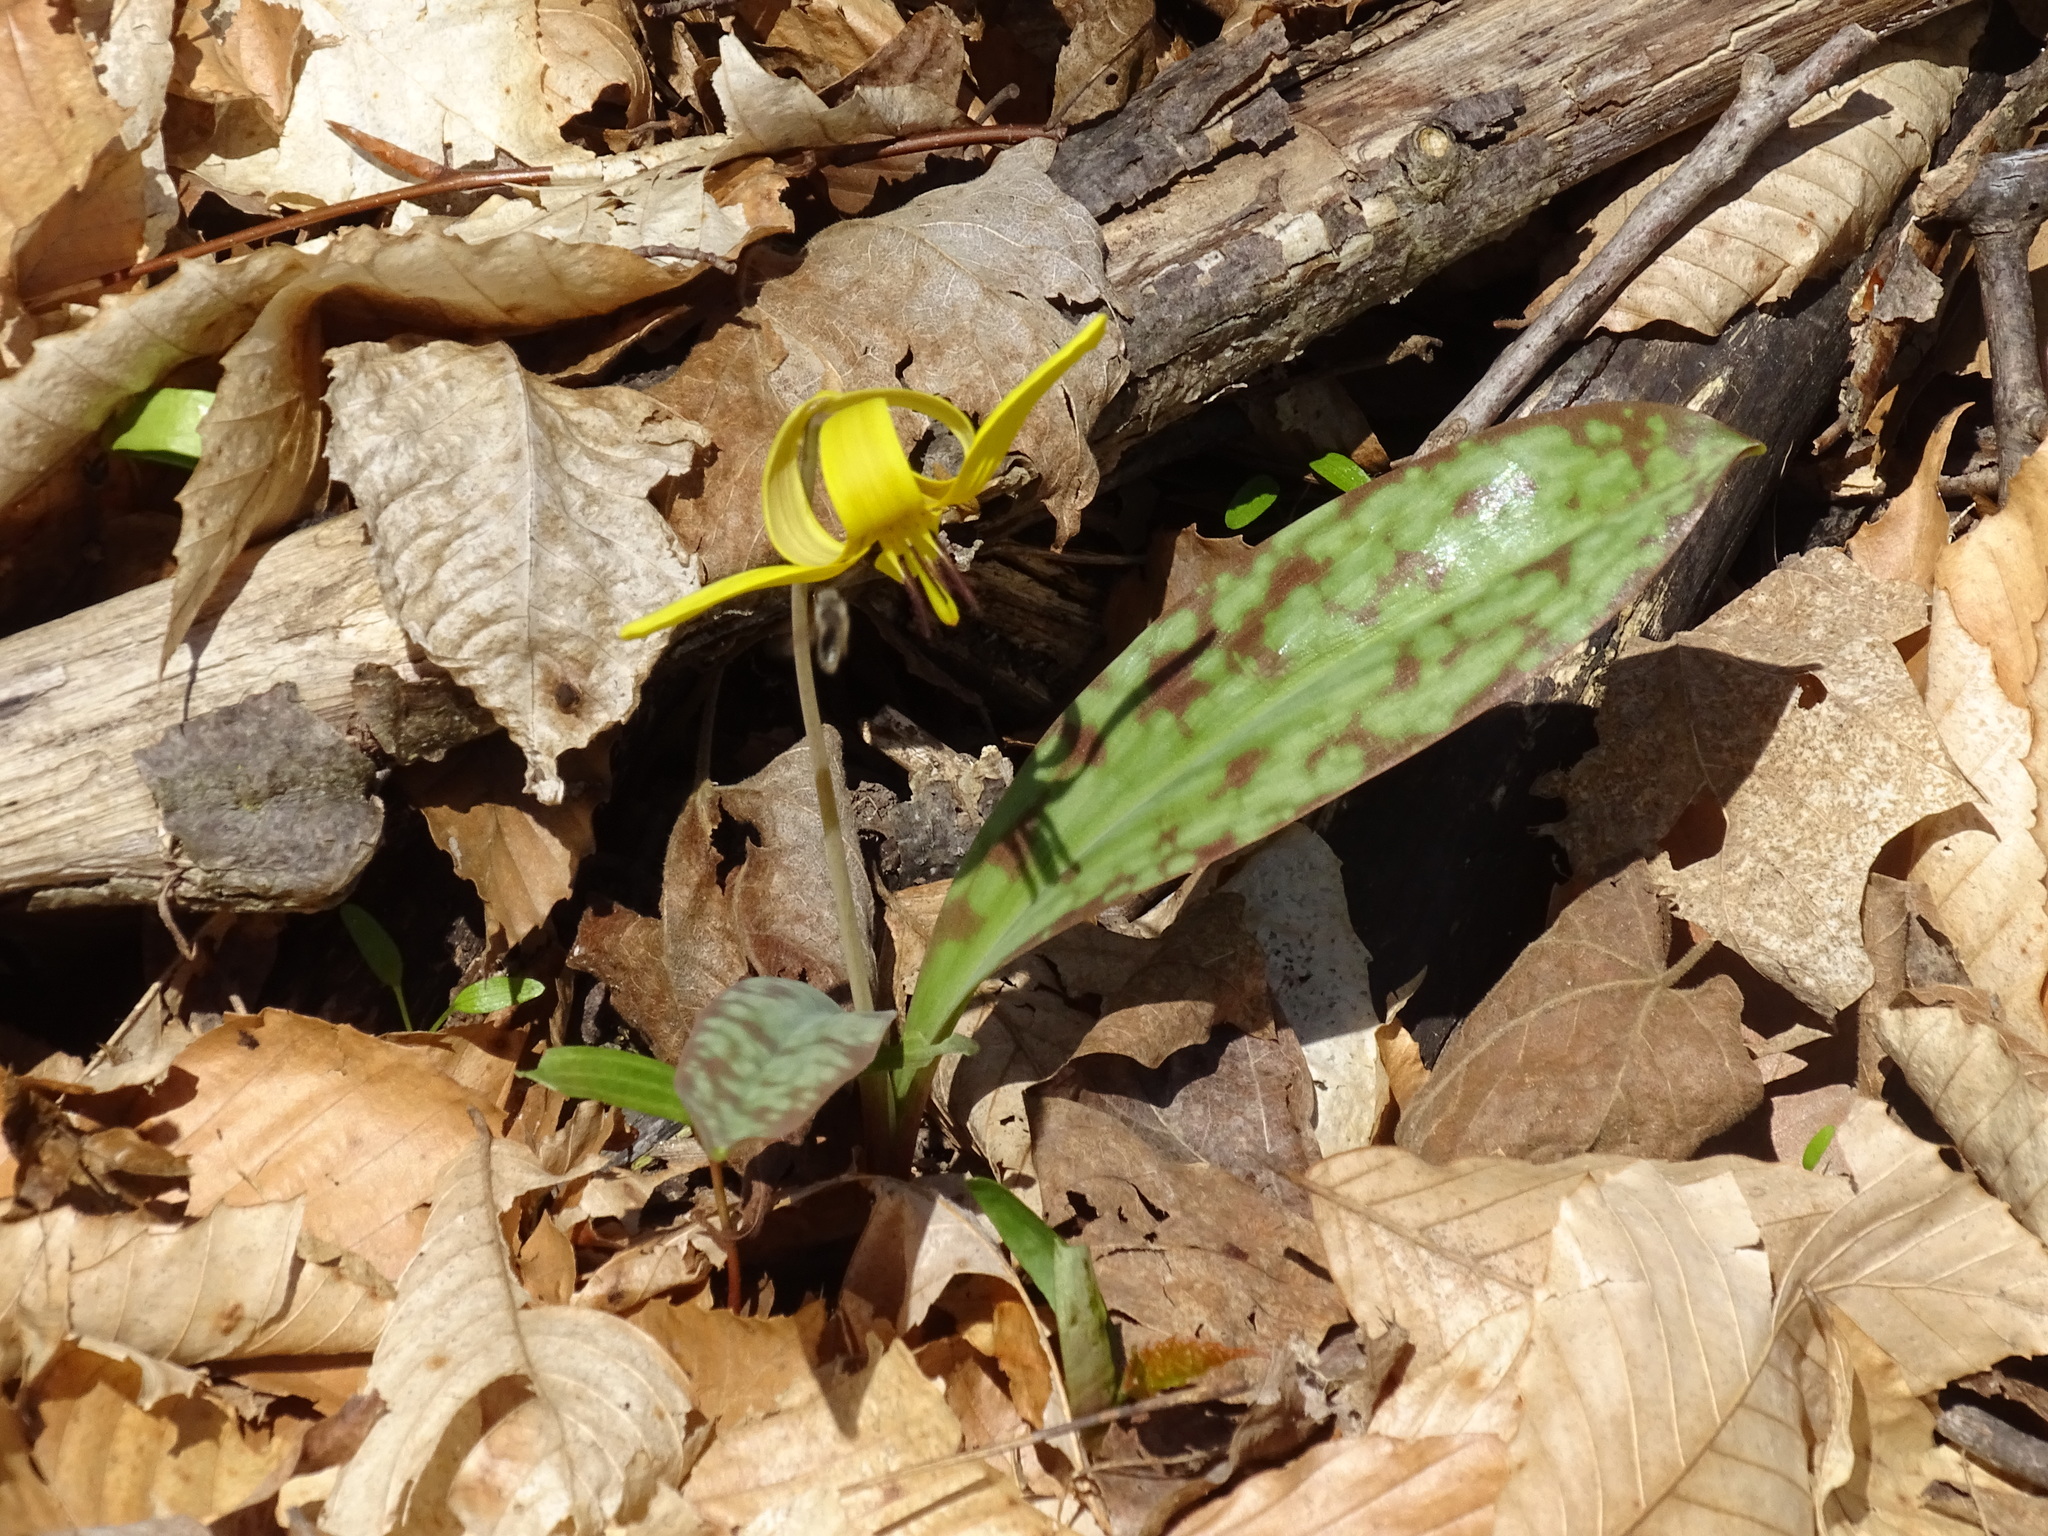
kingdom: Plantae
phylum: Tracheophyta
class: Liliopsida
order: Liliales
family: Liliaceae
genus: Erythronium
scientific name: Erythronium americanum
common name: Yellow adder's-tongue
